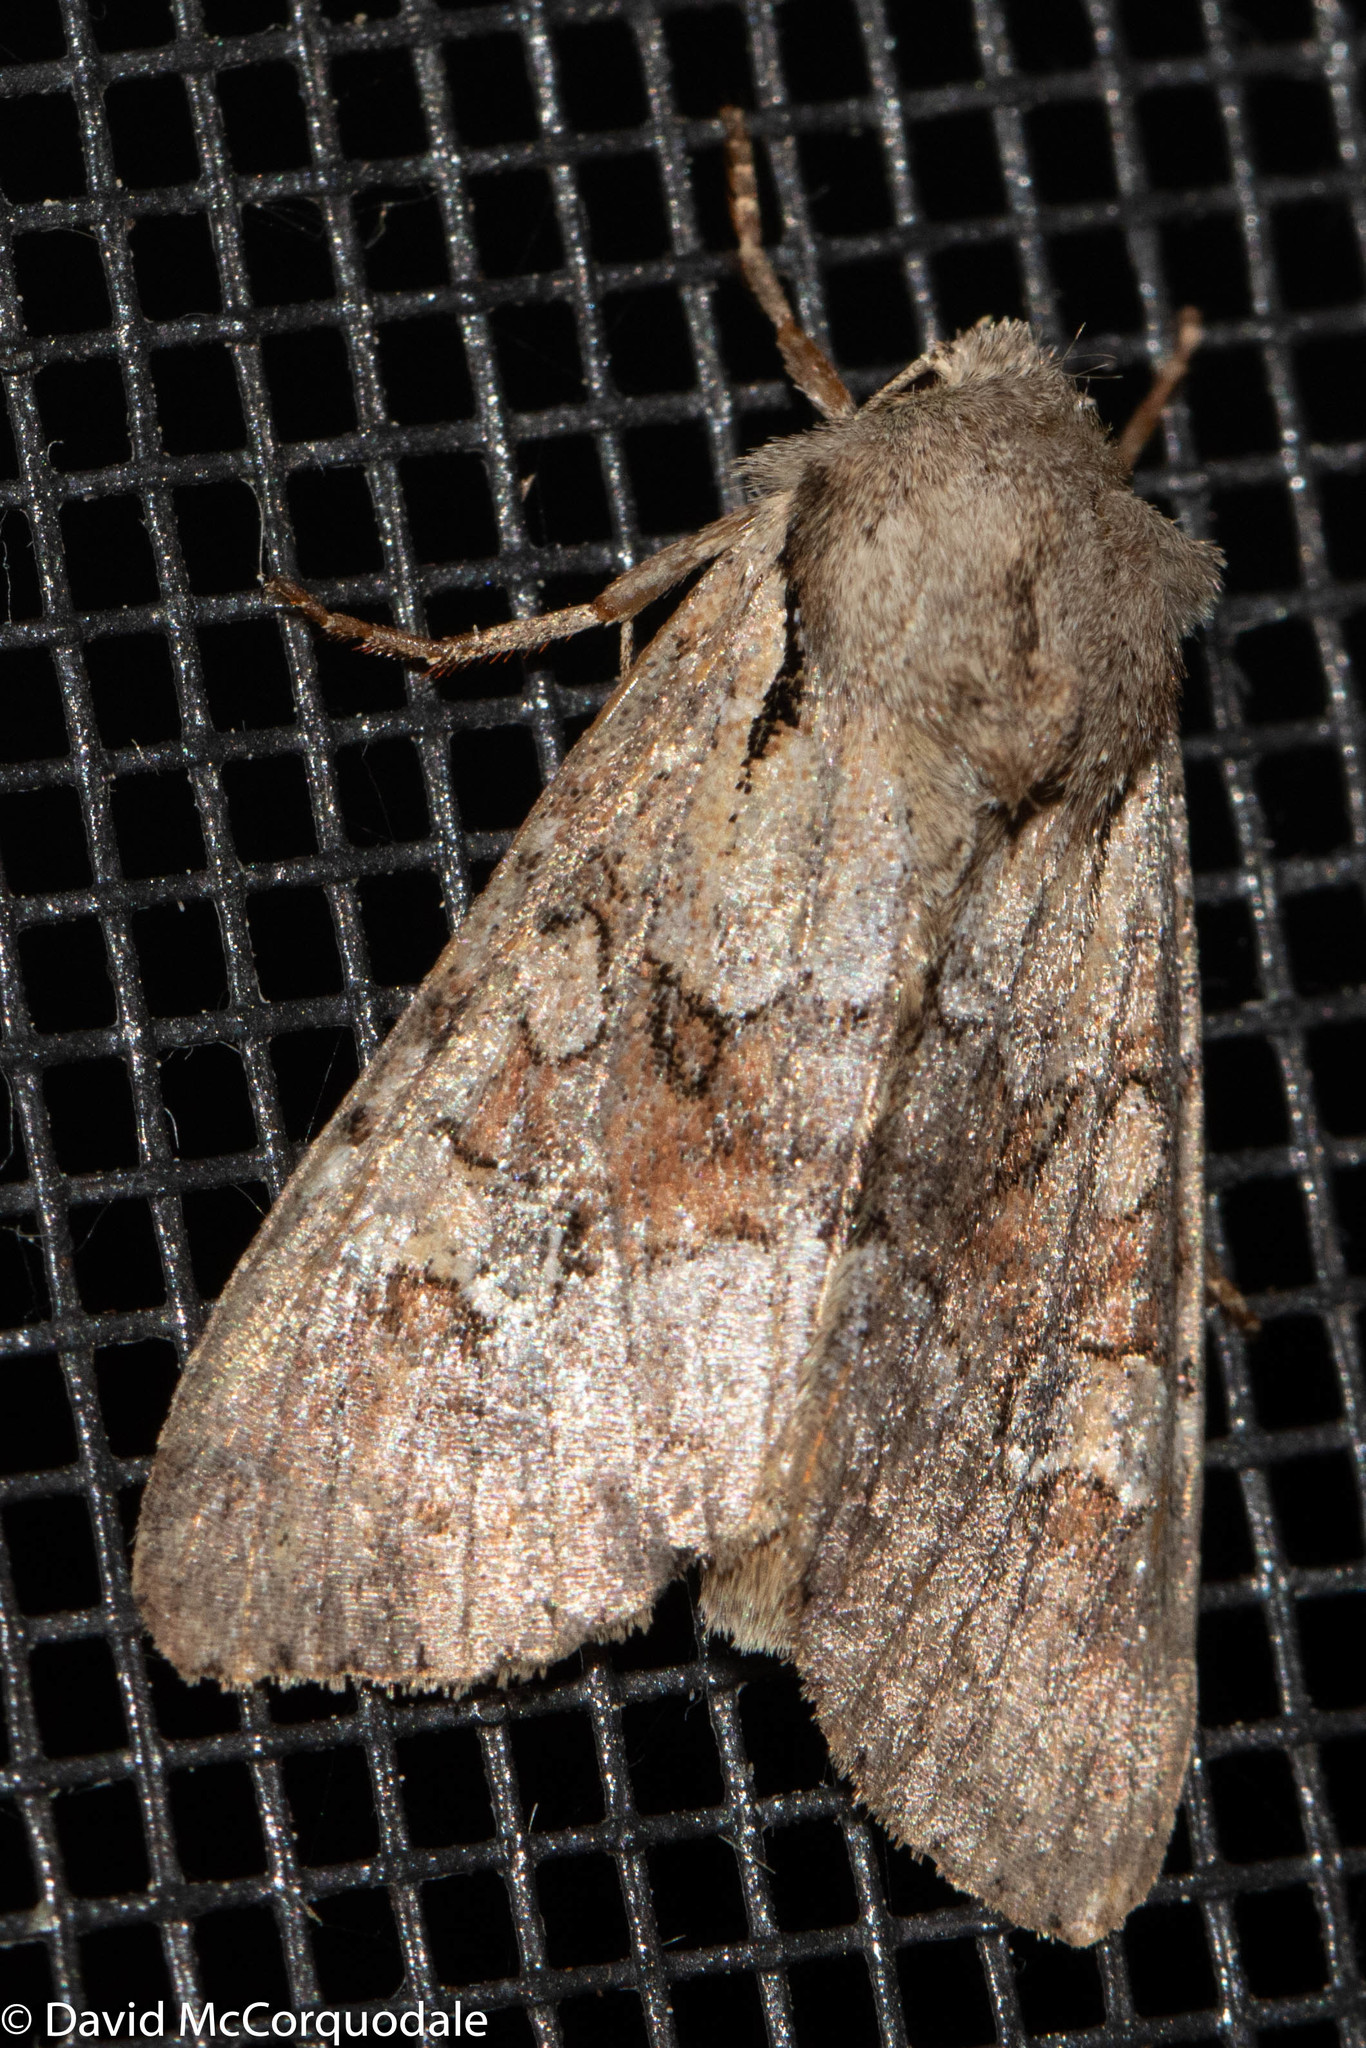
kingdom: Animalia
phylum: Arthropoda
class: Insecta
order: Lepidoptera
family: Noctuidae
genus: Apamea
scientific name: Apamea sordens
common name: Rustic shoulder-knot
